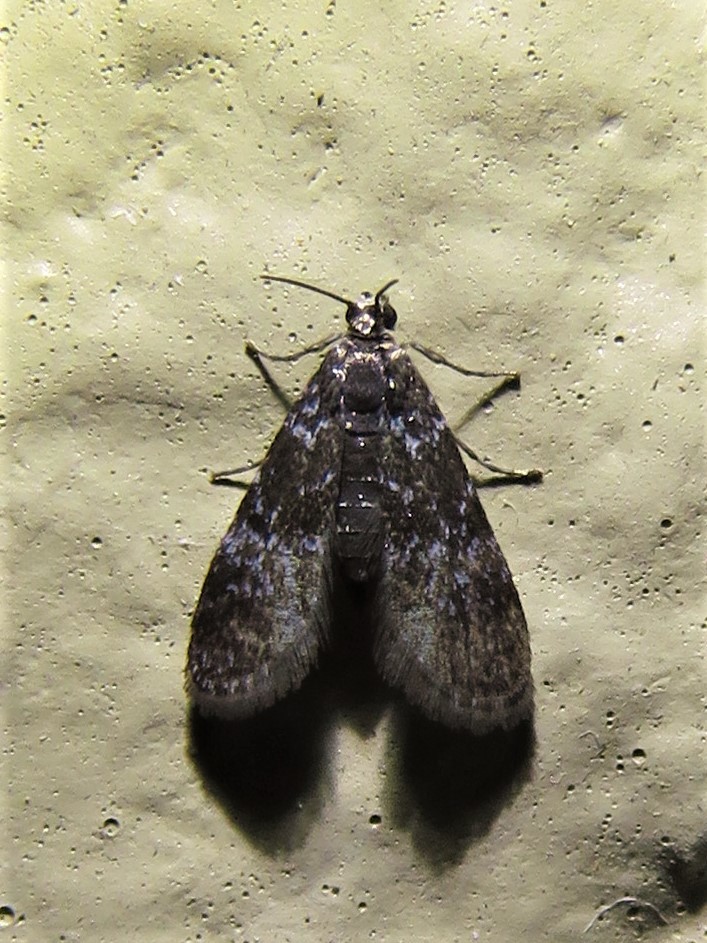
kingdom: Animalia
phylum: Arthropoda
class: Insecta
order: Lepidoptera
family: Crambidae
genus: Elophila
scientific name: Elophila tinealis
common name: Black duckweed moth
